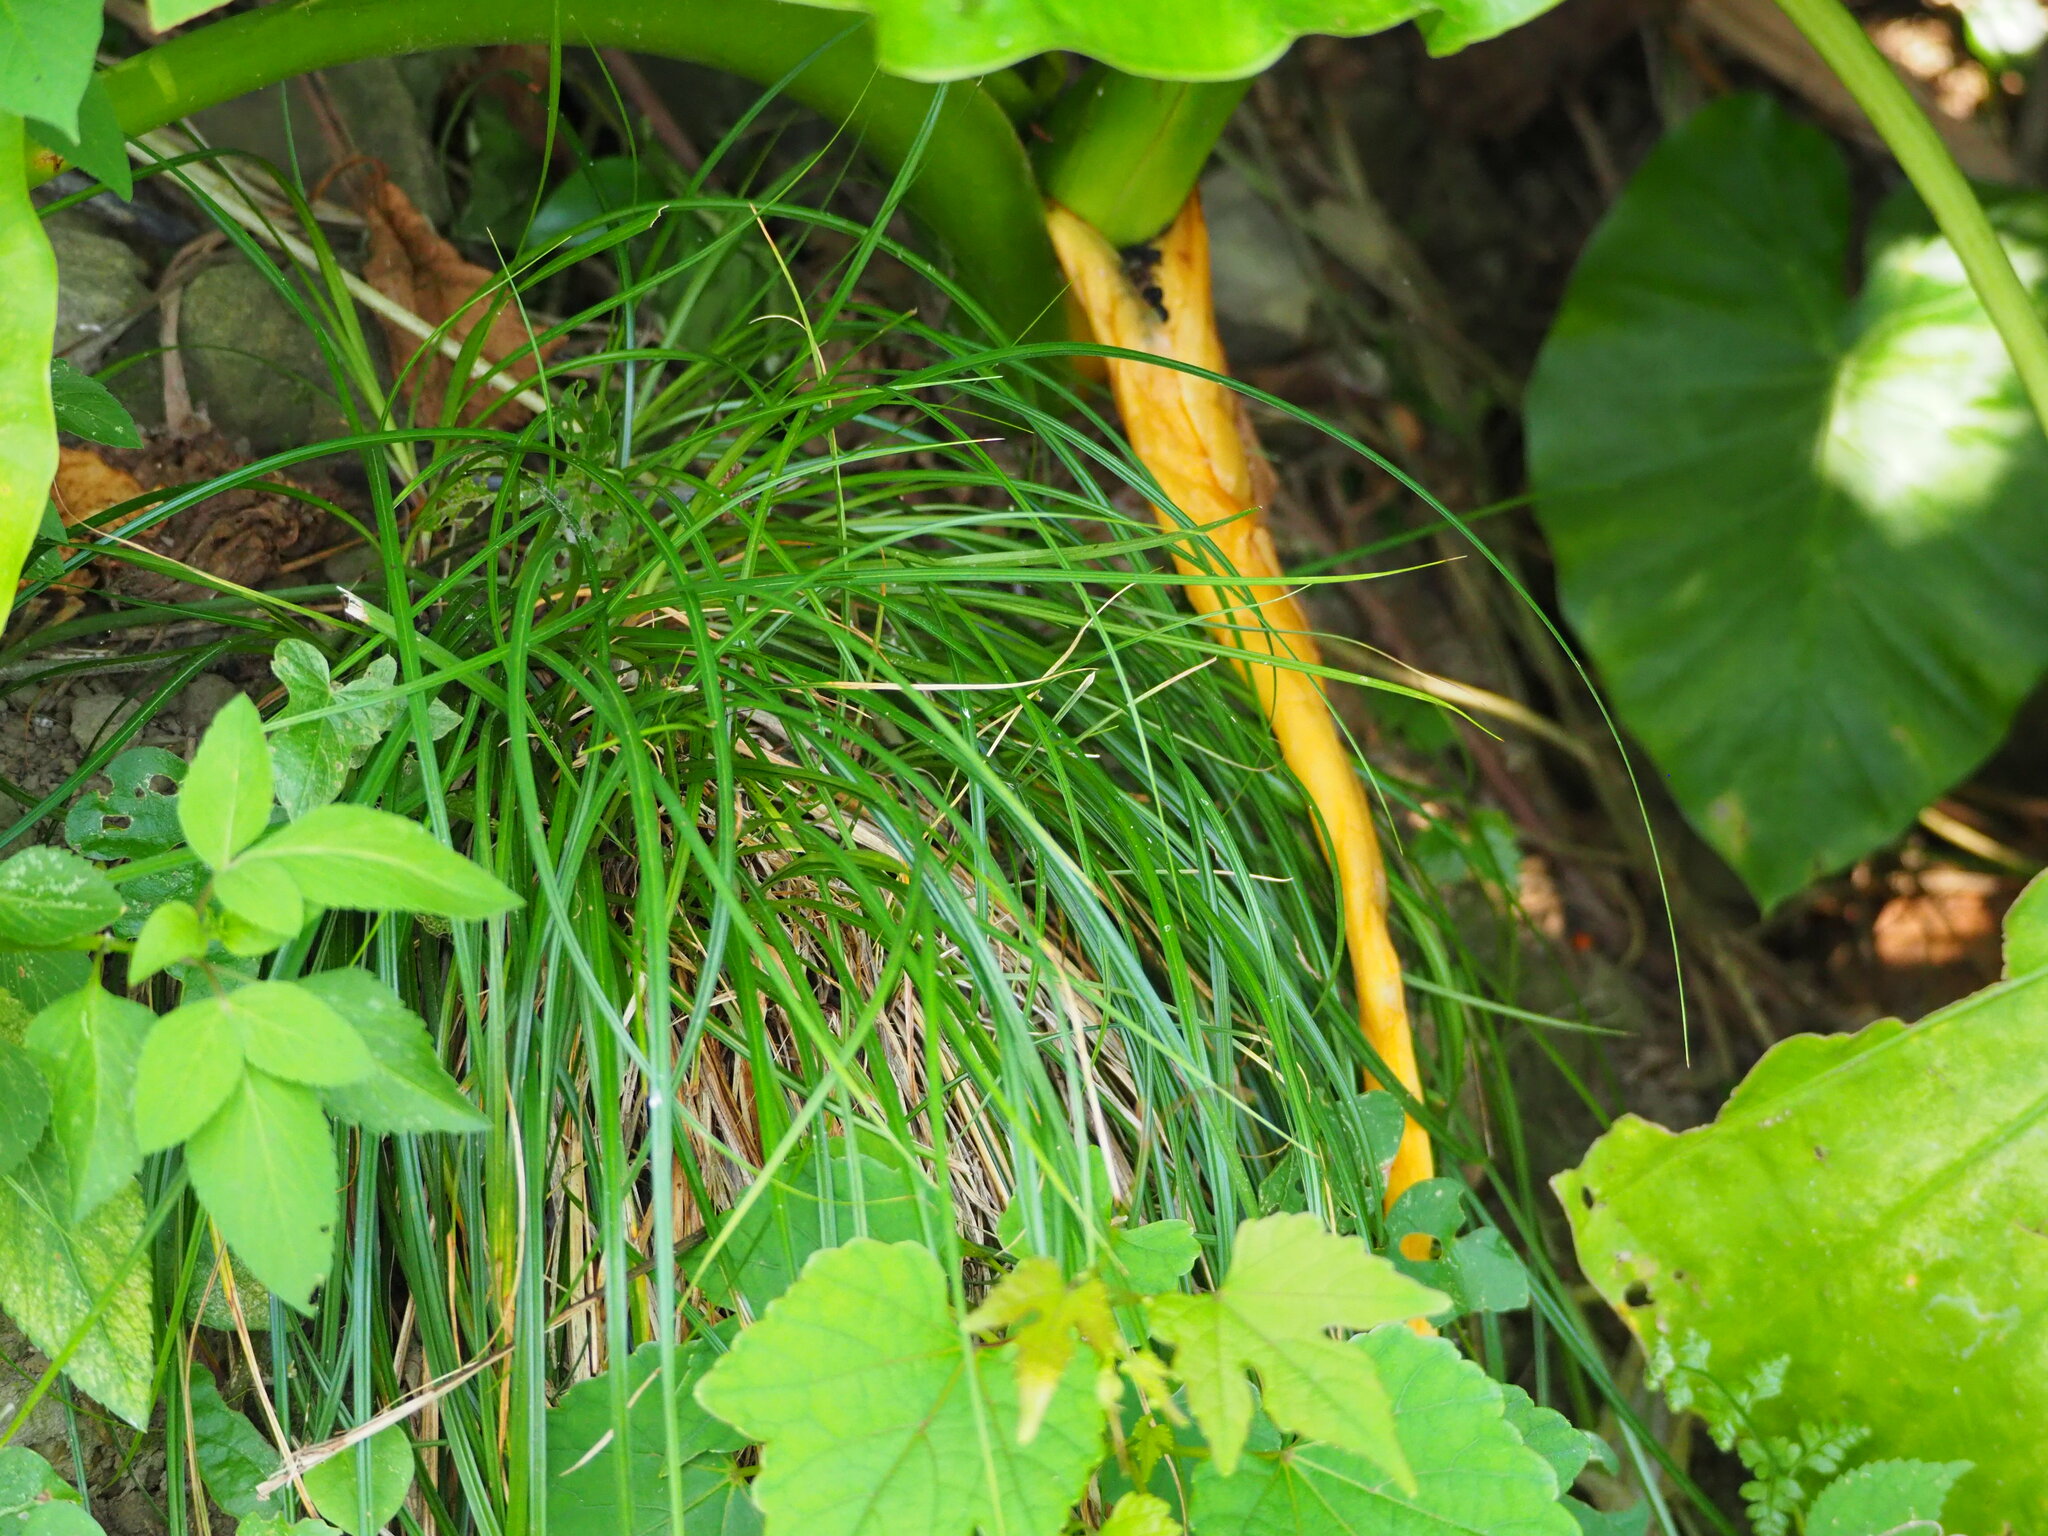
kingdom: Plantae
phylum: Tracheophyta
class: Liliopsida
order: Asparagales
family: Asparagaceae
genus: Liriope
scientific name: Liriope graminifolia
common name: Lilyturf
